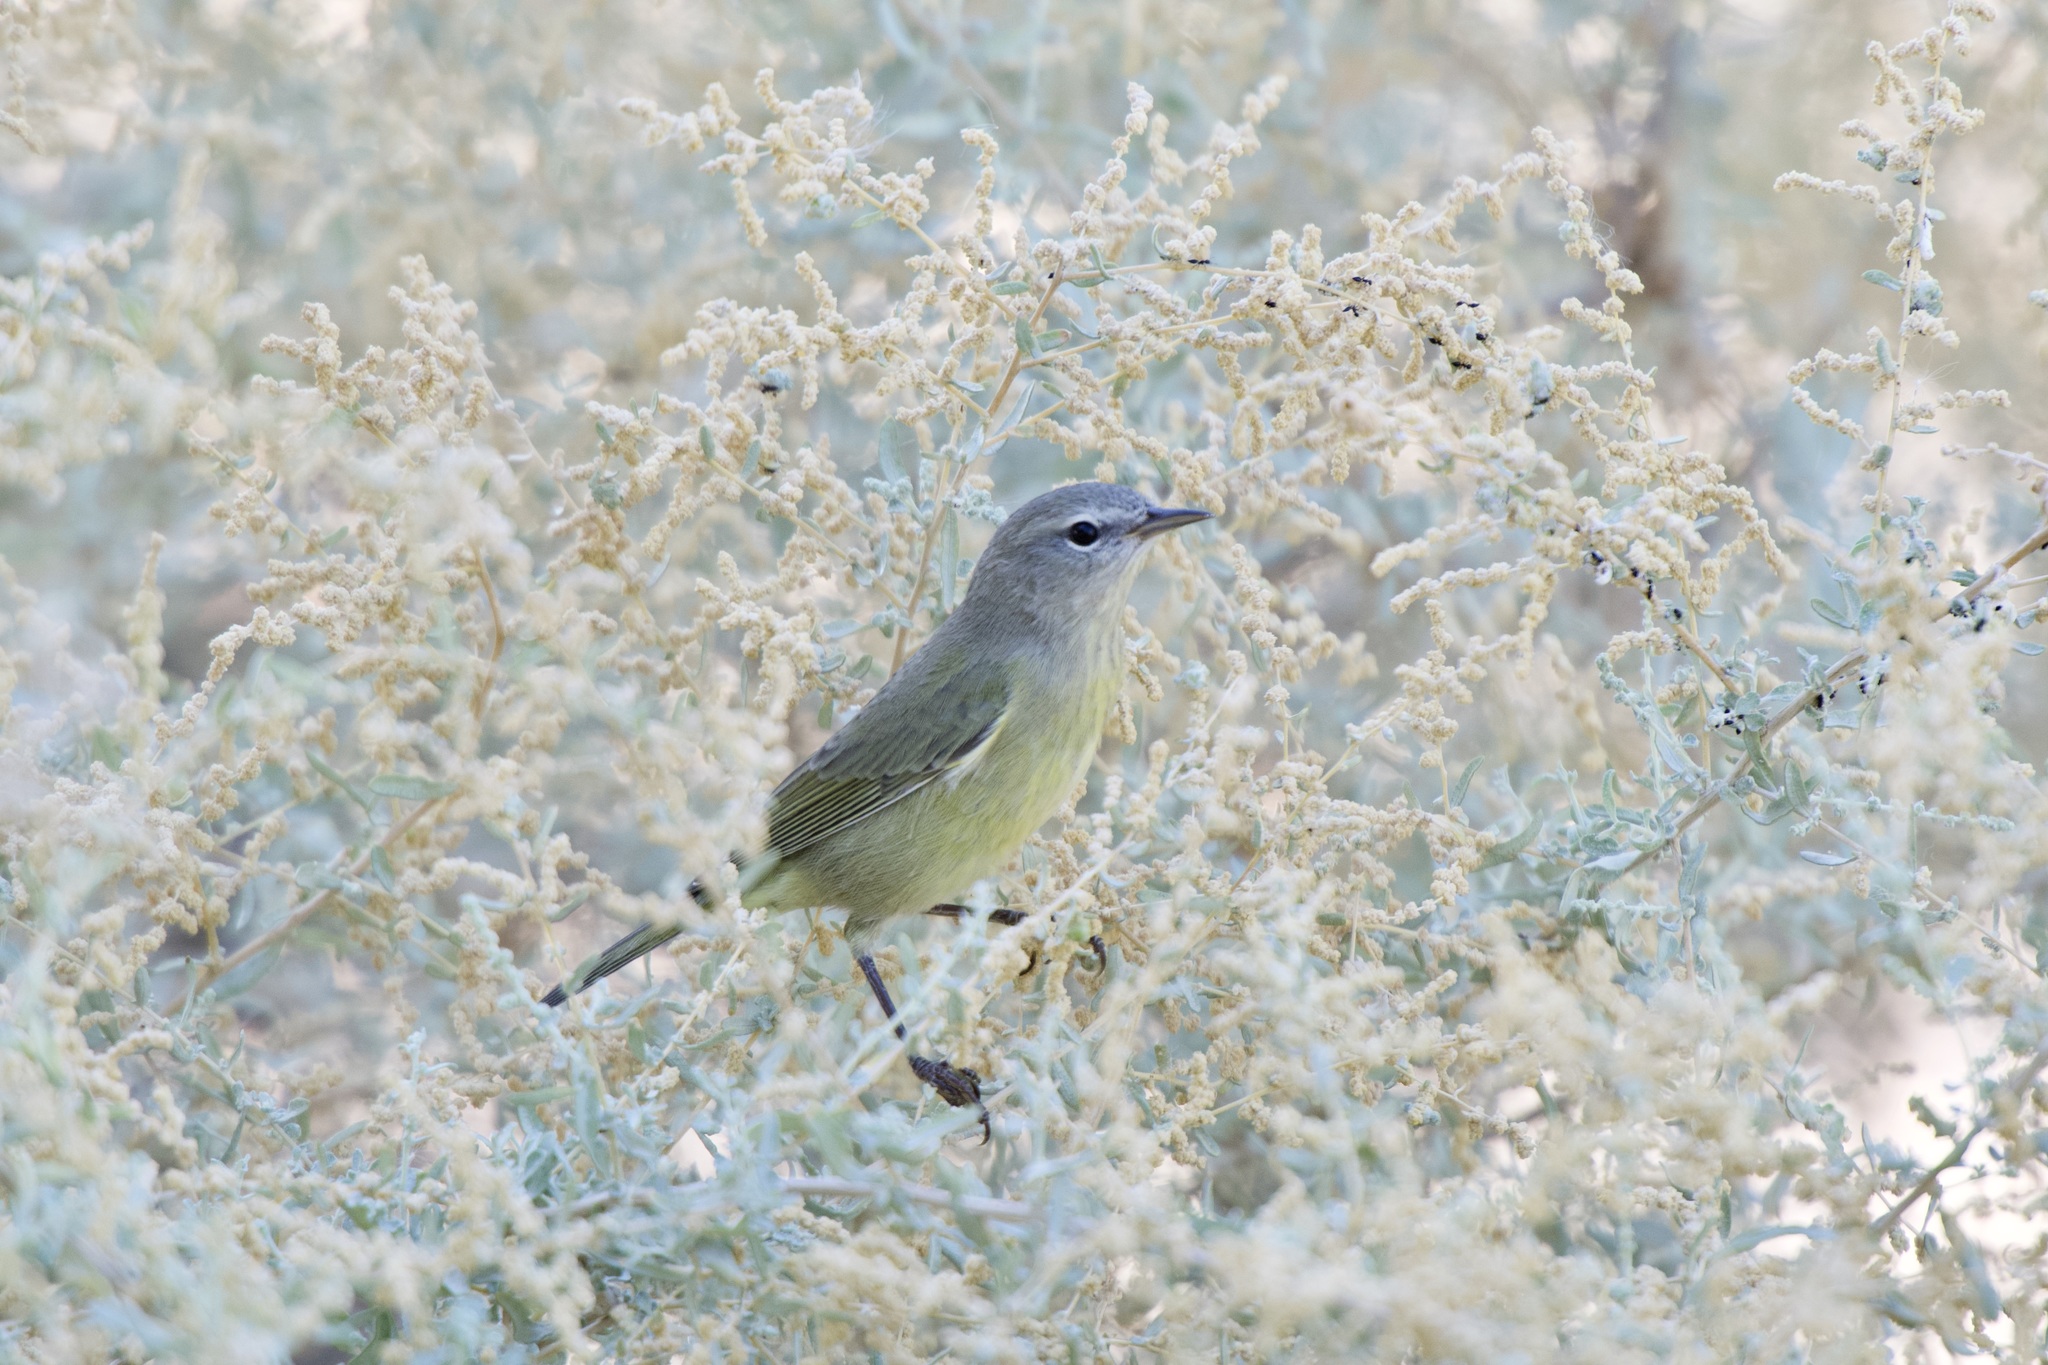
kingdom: Animalia
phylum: Chordata
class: Aves
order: Passeriformes
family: Parulidae
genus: Leiothlypis
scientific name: Leiothlypis celata
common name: Orange-crowned warbler
